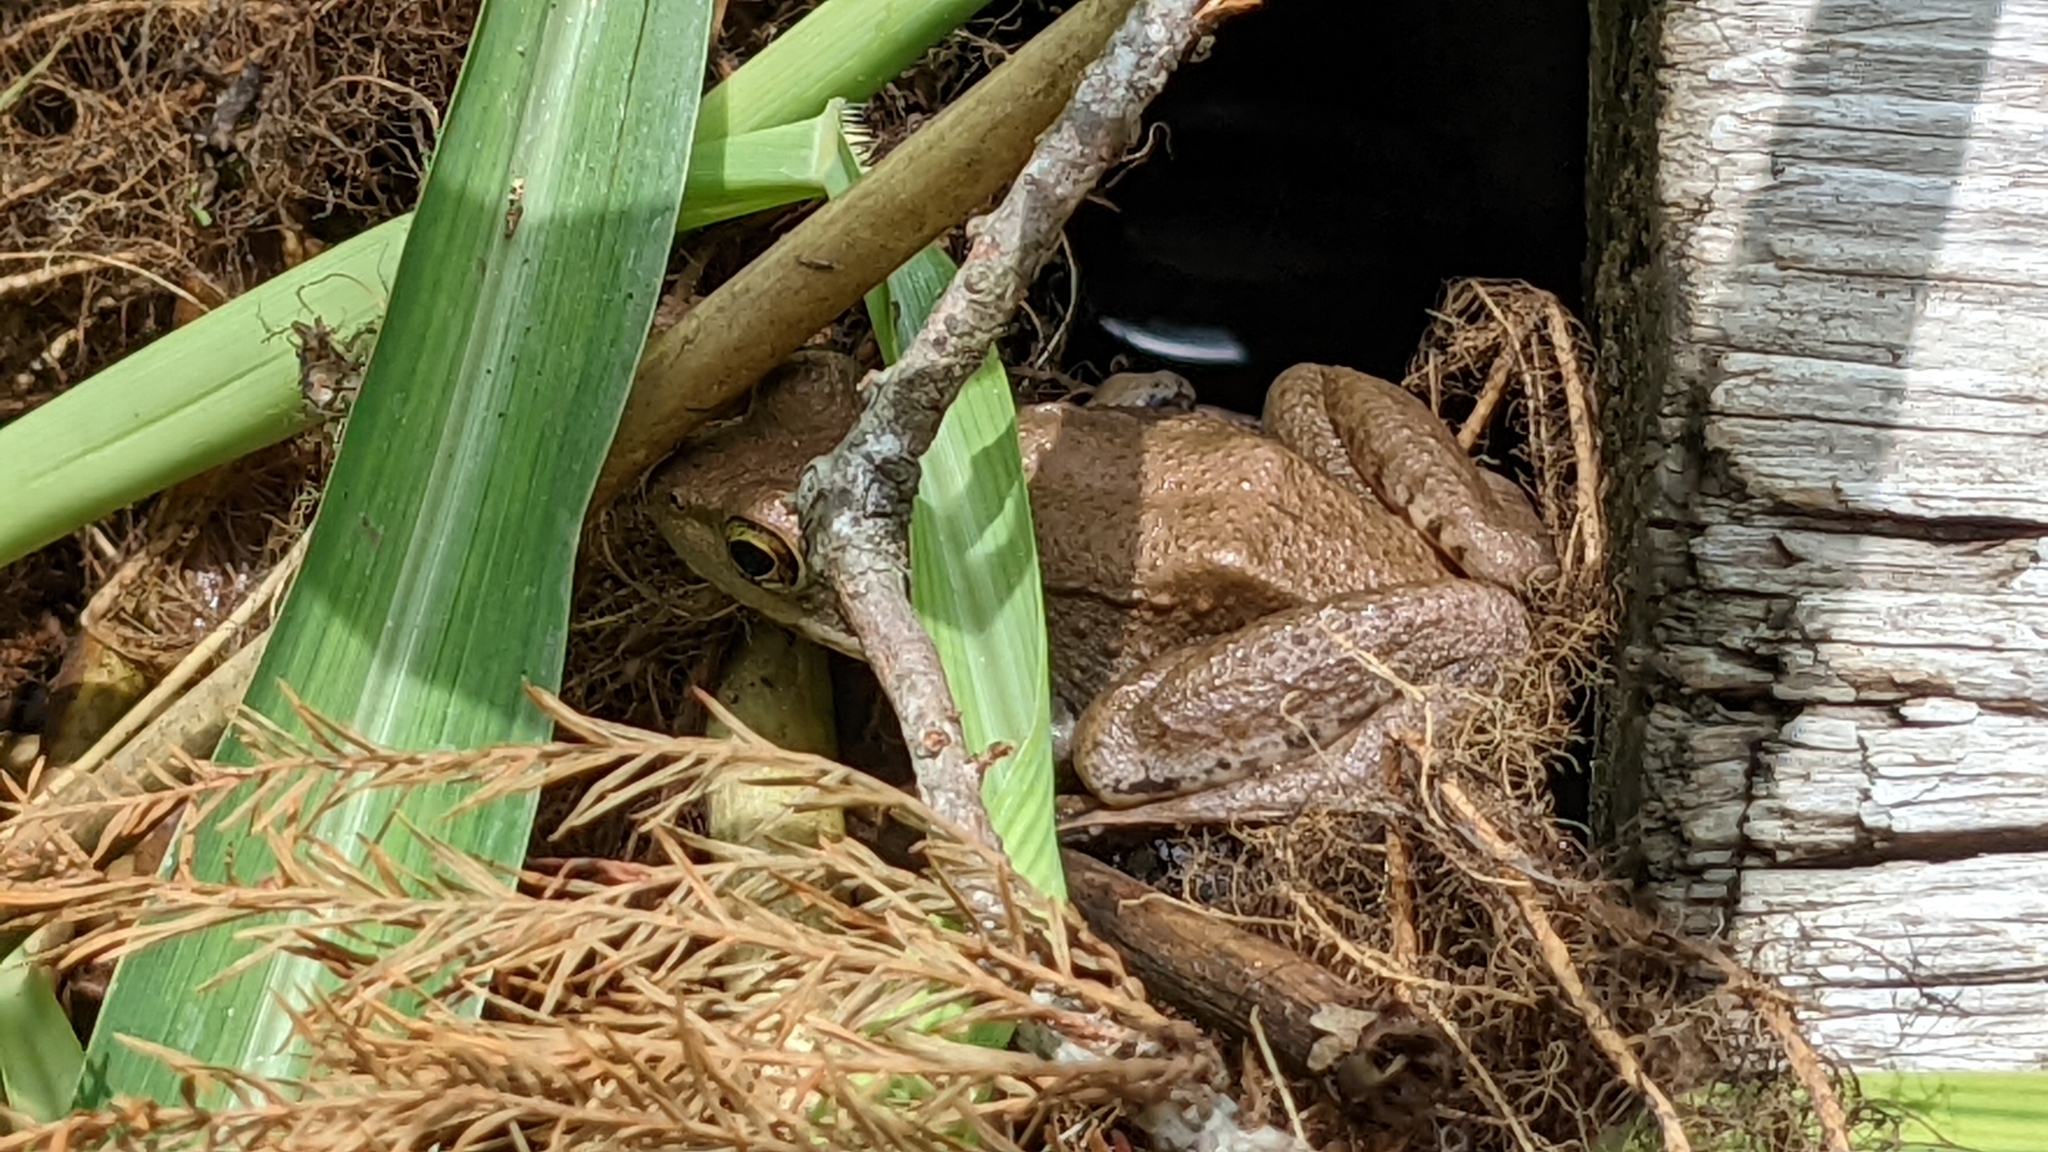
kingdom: Animalia
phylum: Chordata
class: Amphibia
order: Anura
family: Ranidae
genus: Lithobates
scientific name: Lithobates clamitans
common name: Green frog
